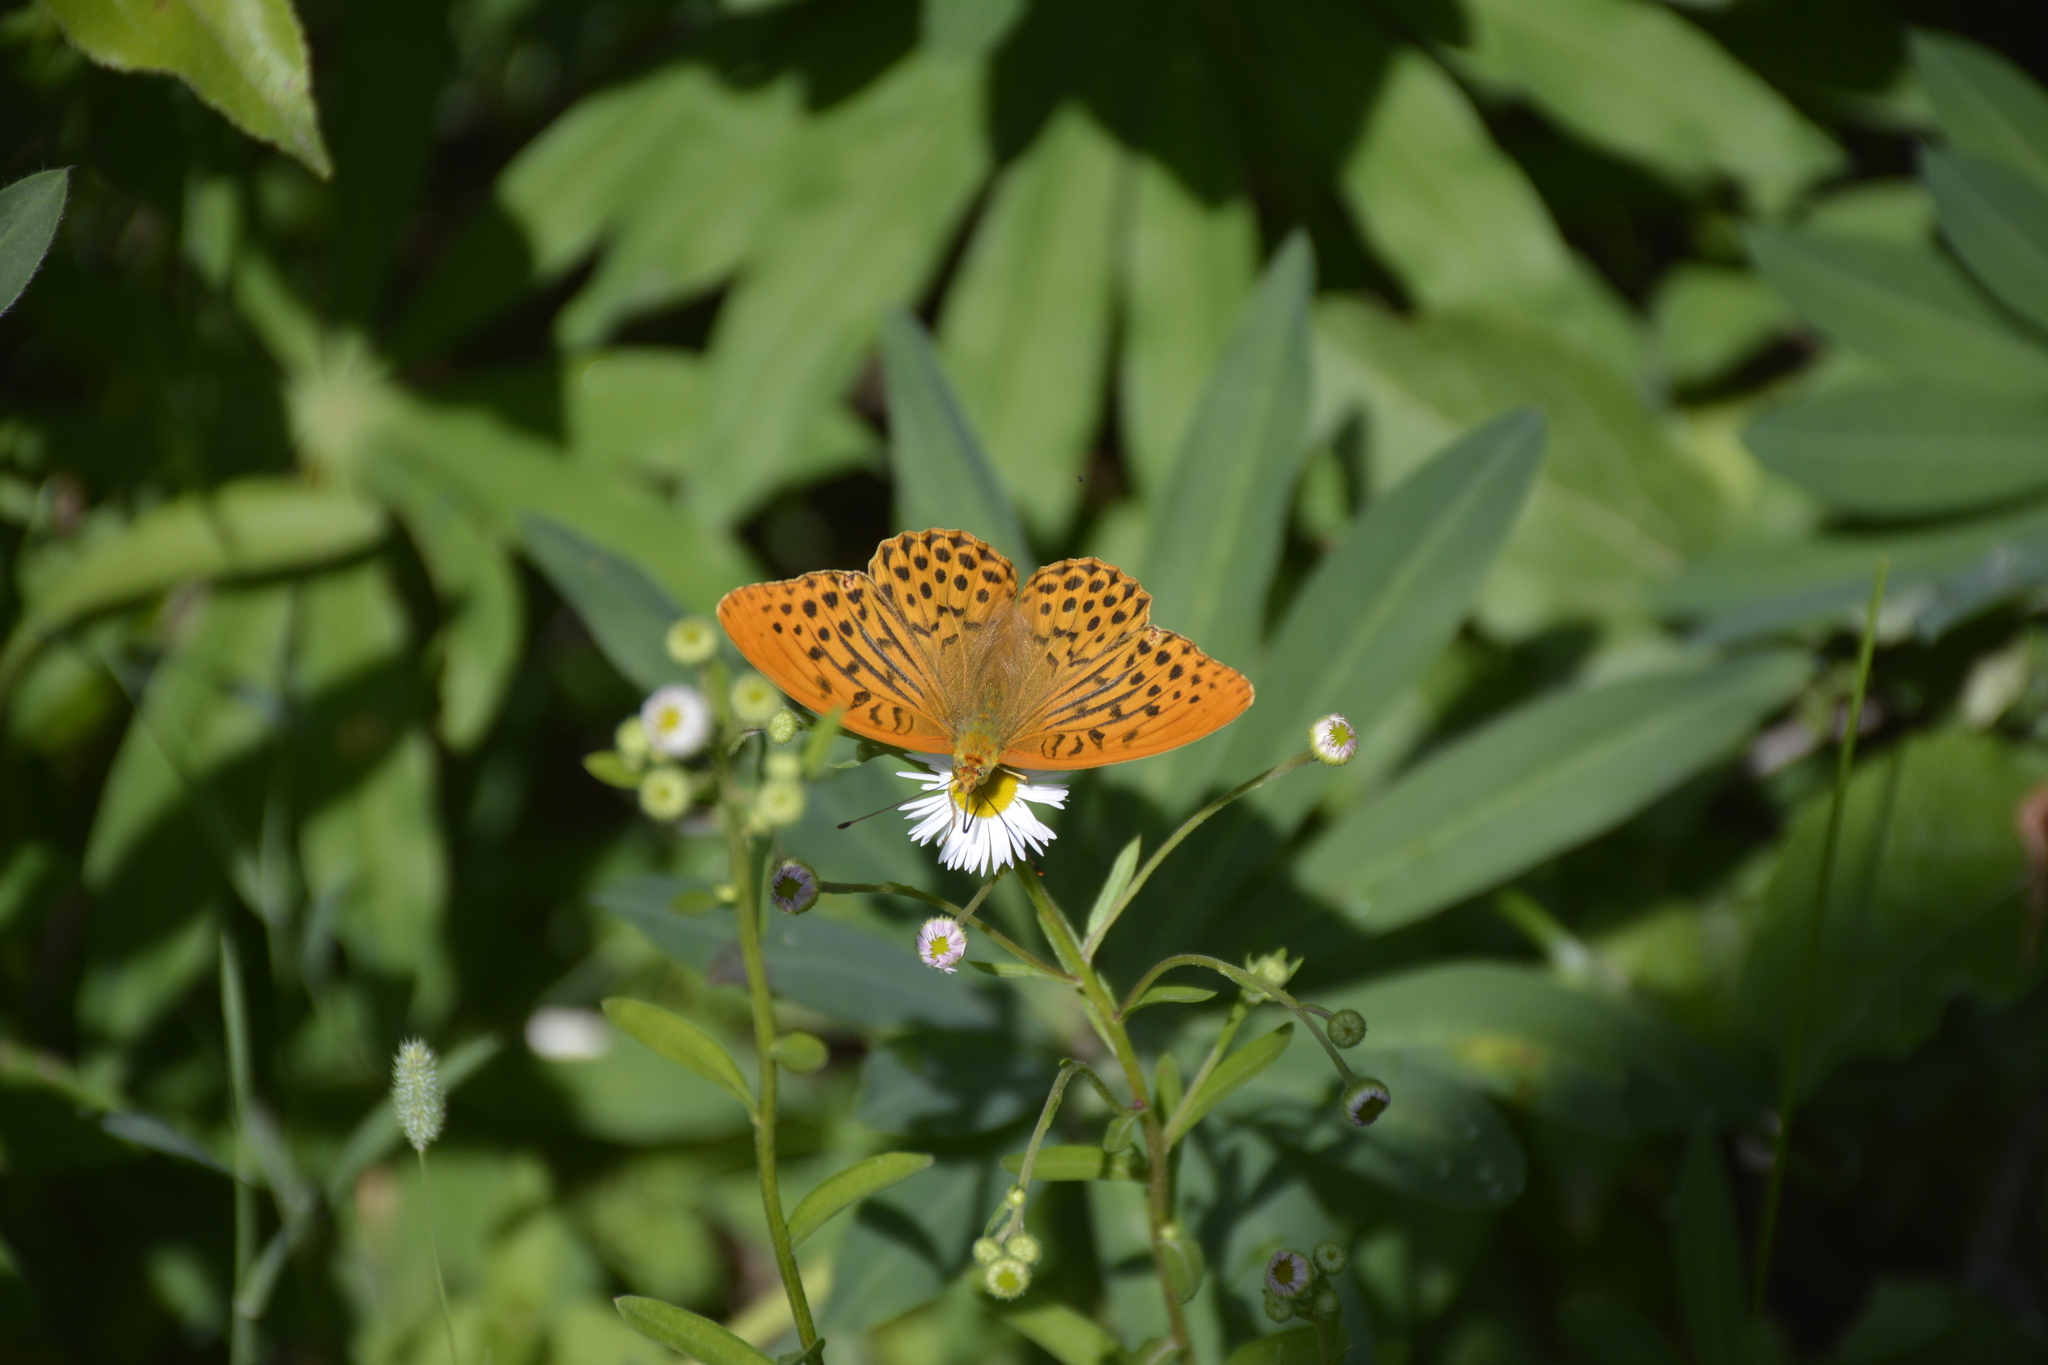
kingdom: Animalia
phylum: Arthropoda
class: Insecta
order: Lepidoptera
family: Nymphalidae
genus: Argynnis
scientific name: Argynnis paphia
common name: Silver-washed fritillary
